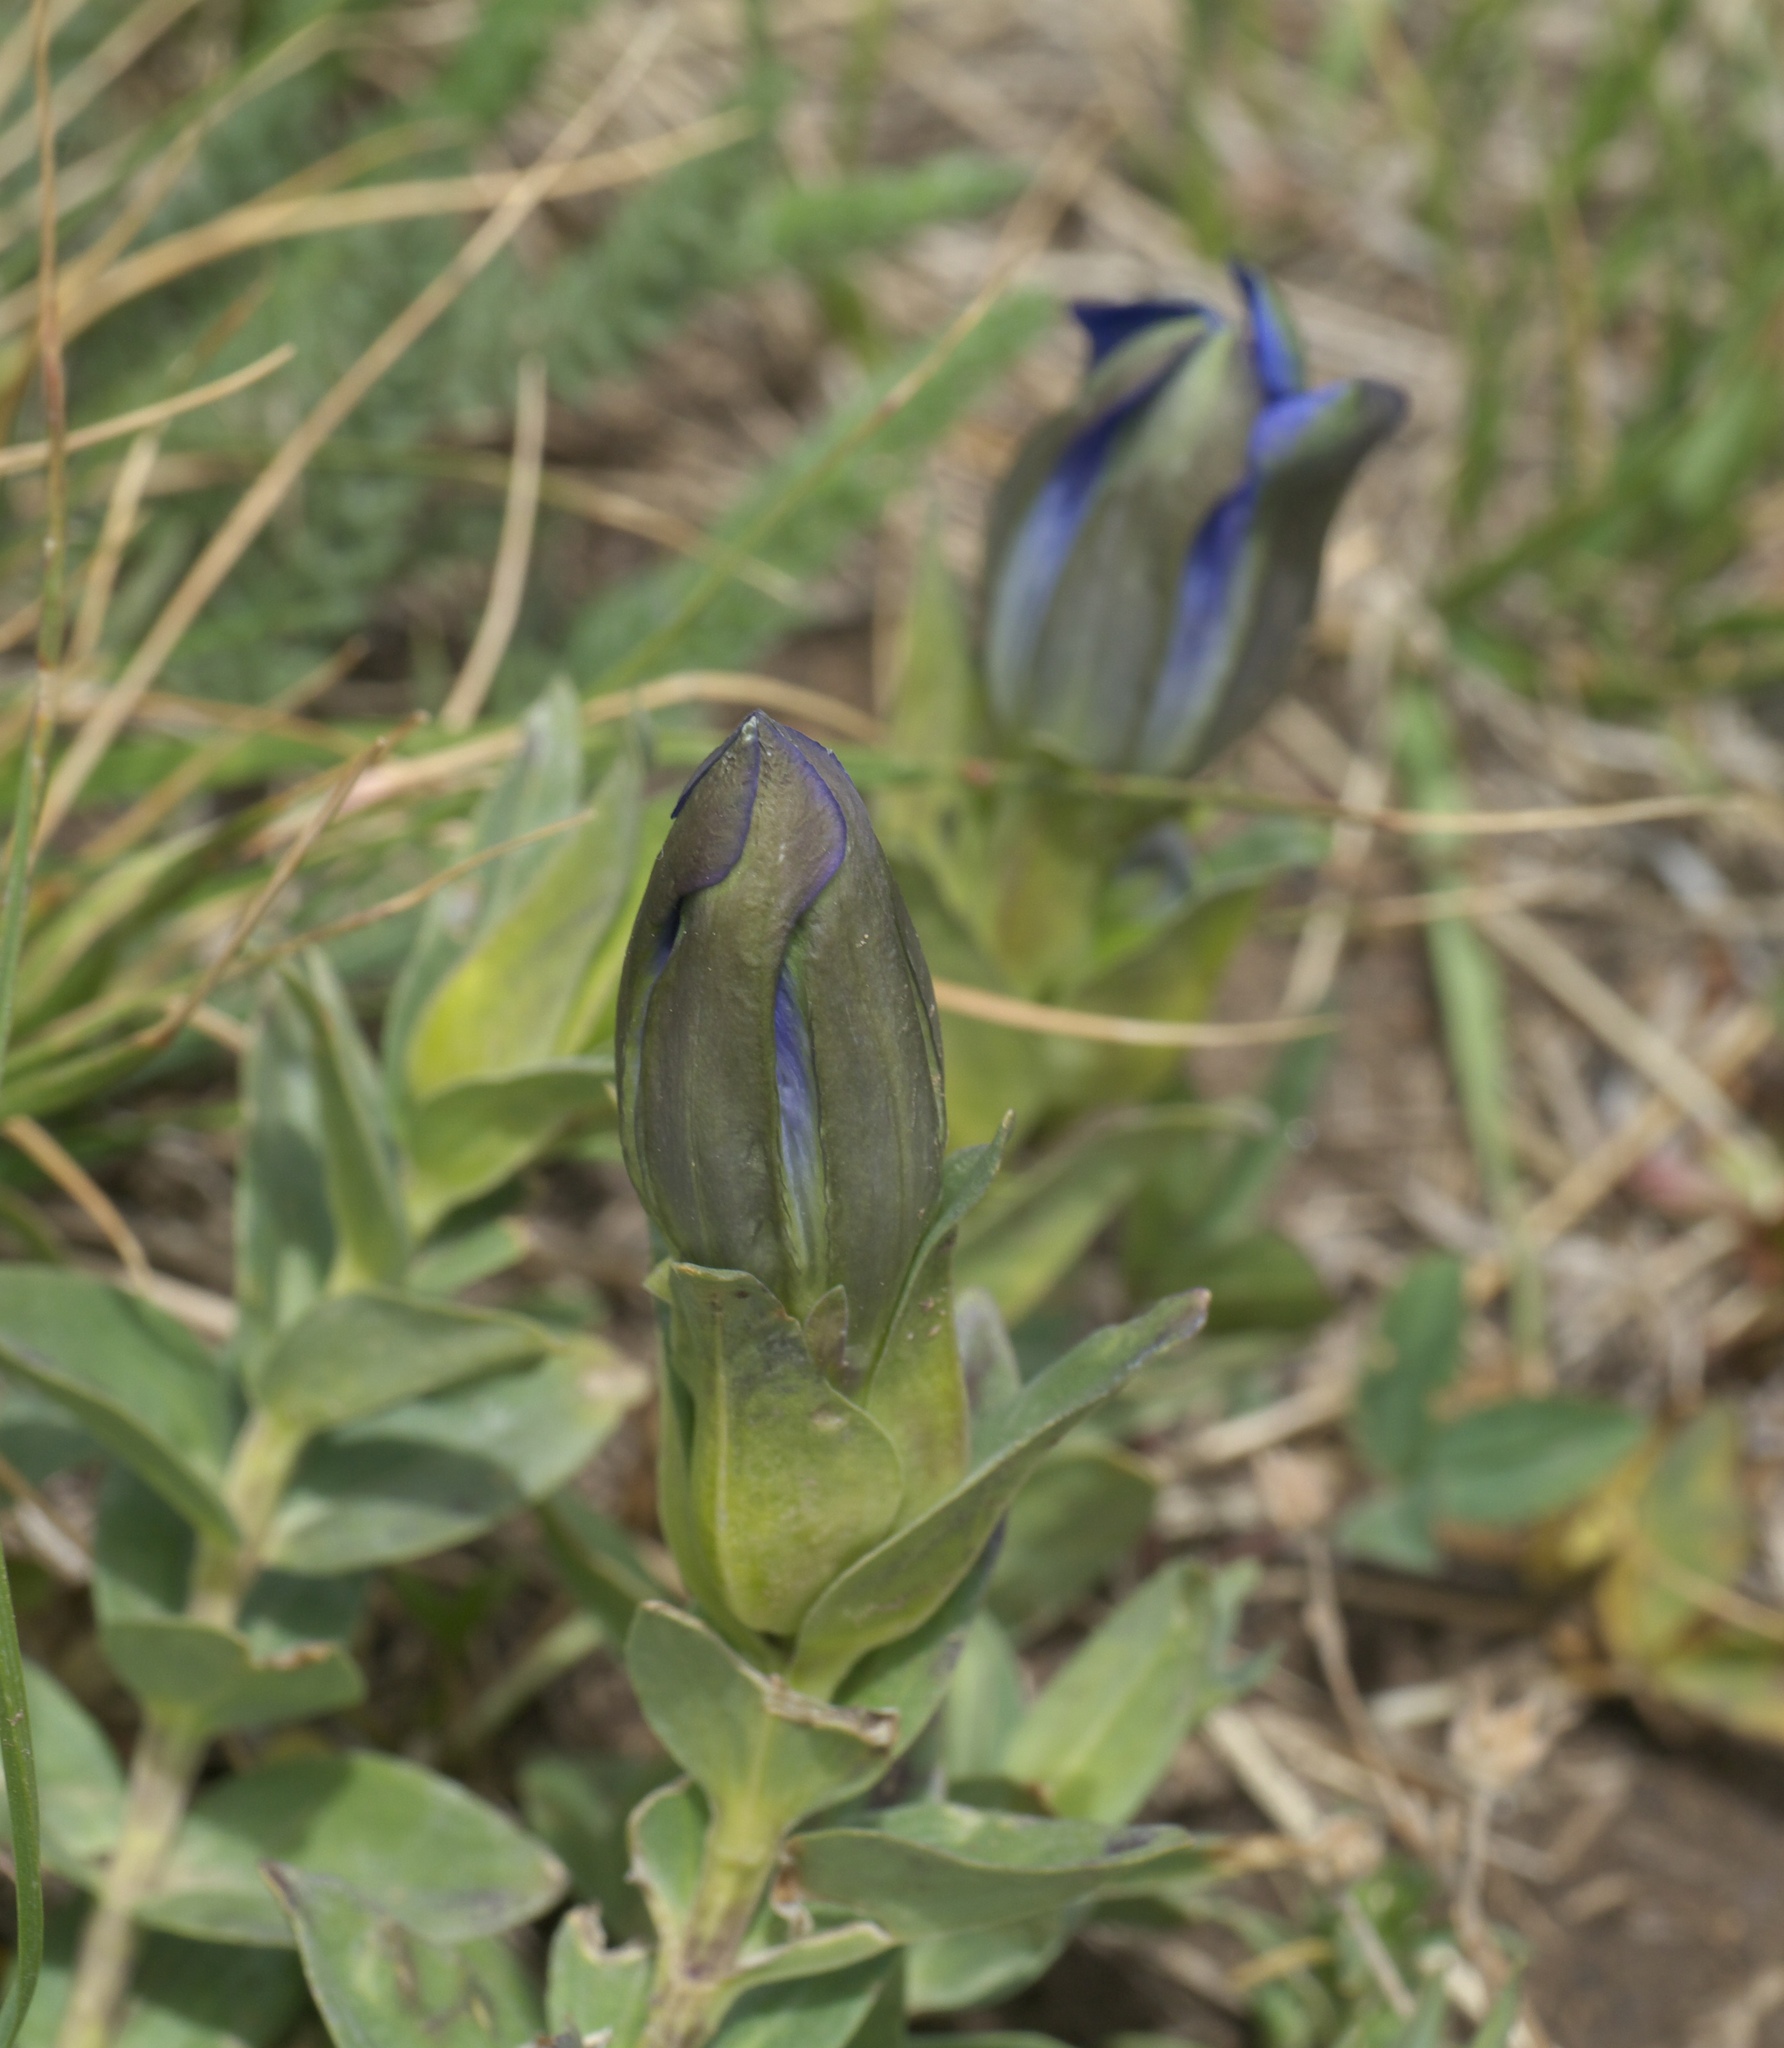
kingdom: Plantae
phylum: Tracheophyta
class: Magnoliopsida
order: Gentianales
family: Gentianaceae
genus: Gentiana
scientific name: Gentiana parryi
